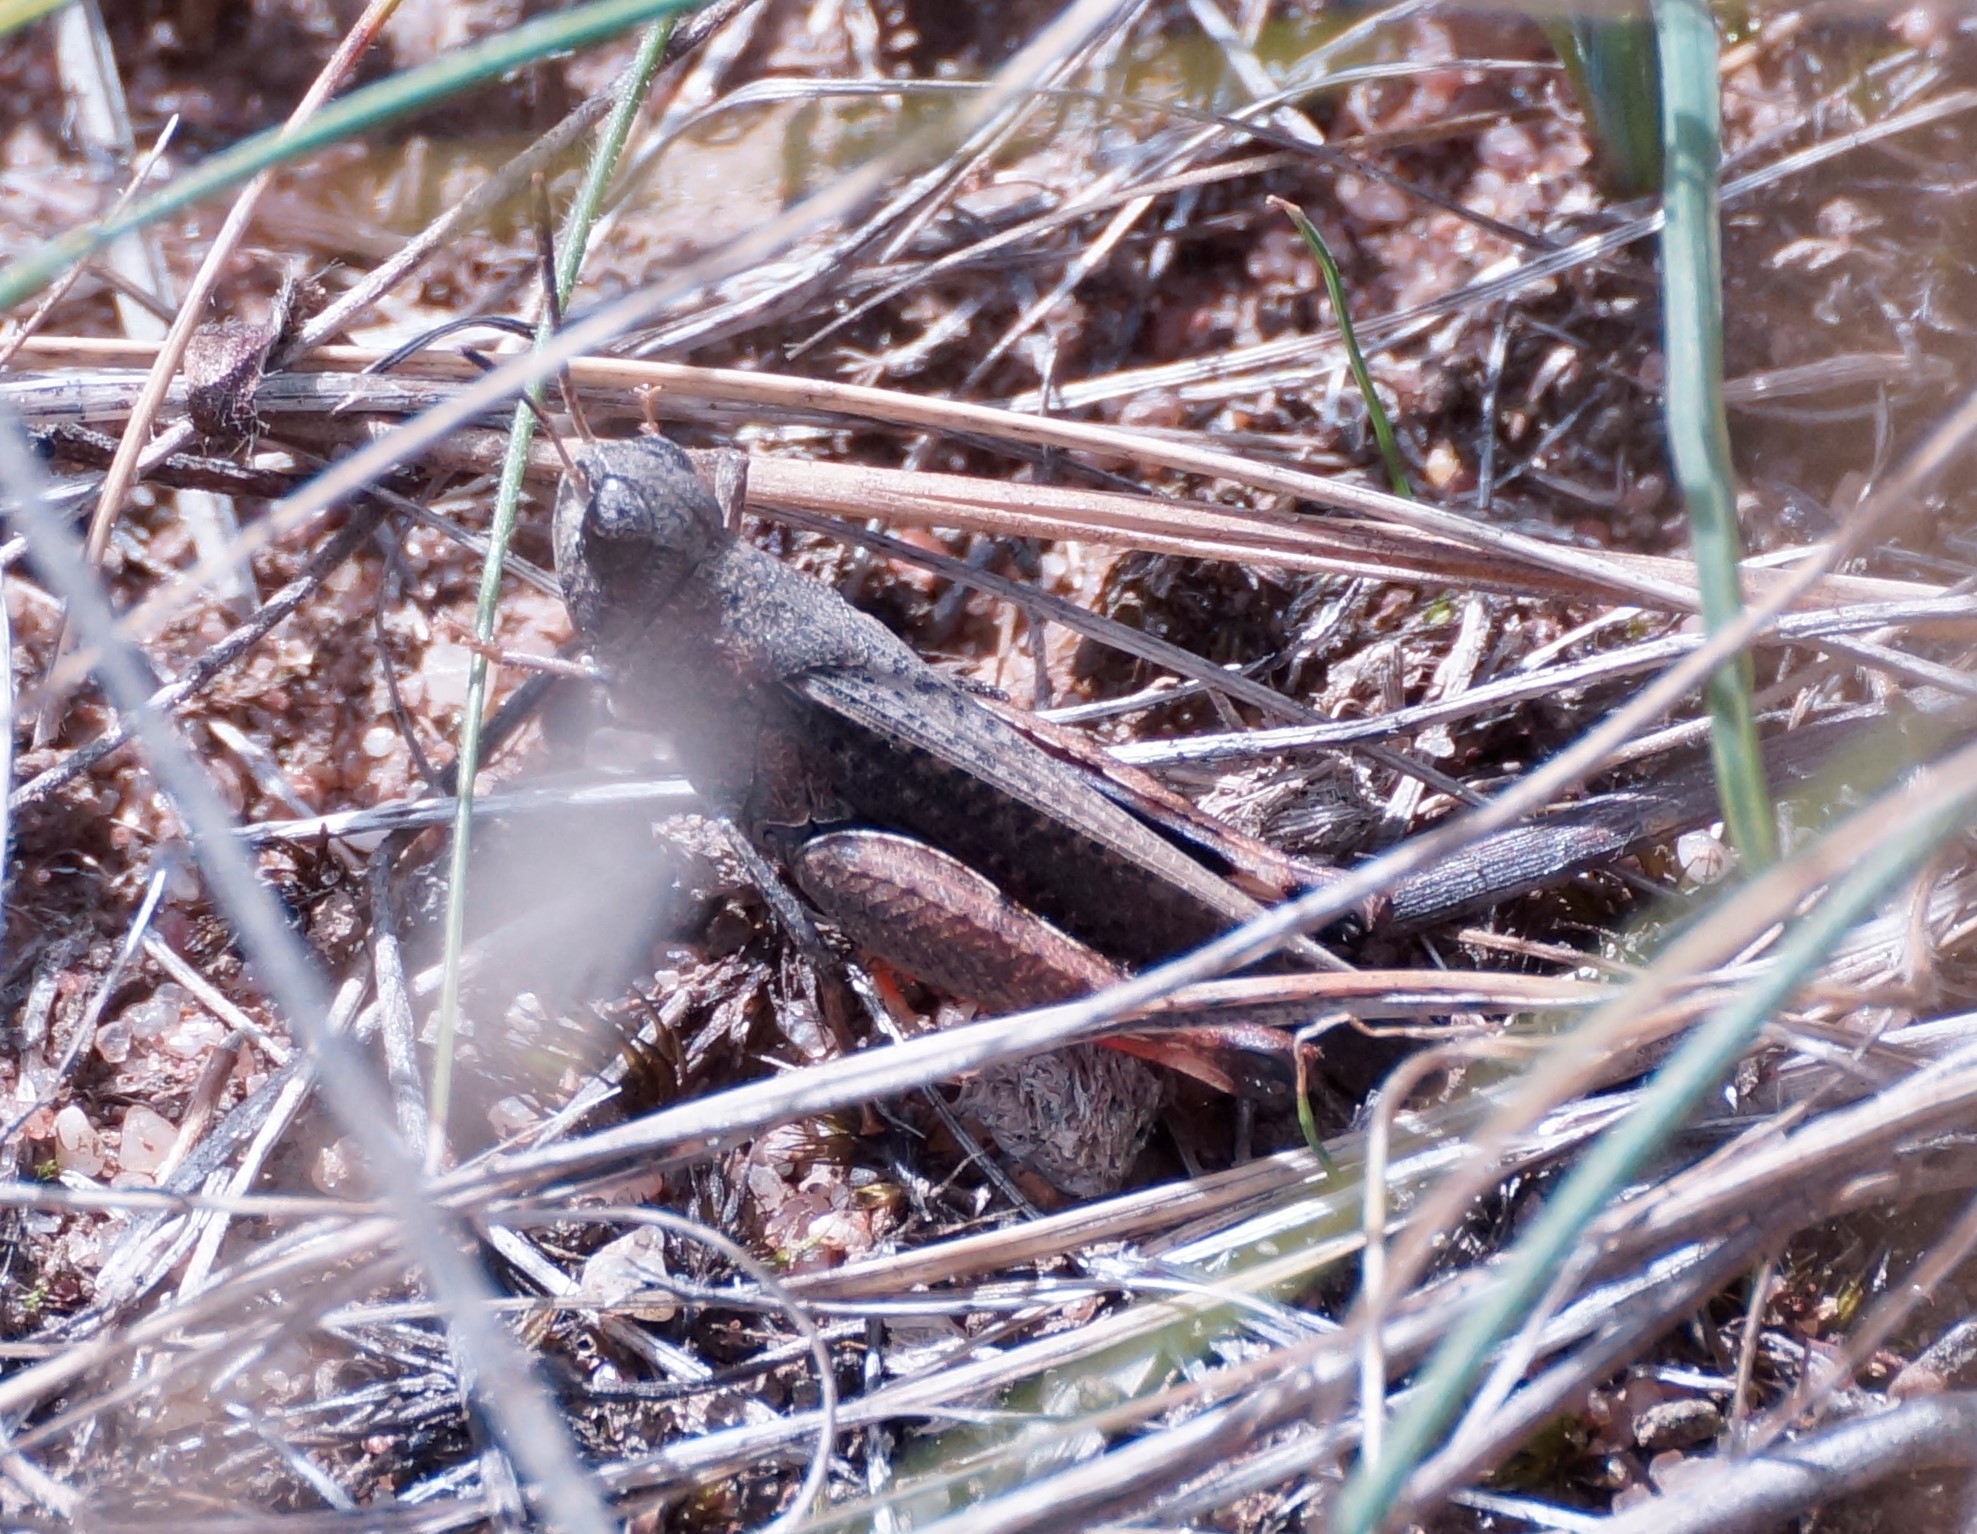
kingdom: Animalia
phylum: Arthropoda
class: Insecta
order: Orthoptera
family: Acrididae
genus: Cryptobothrus
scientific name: Cryptobothrus chrysophorus
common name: Golden bandwing
